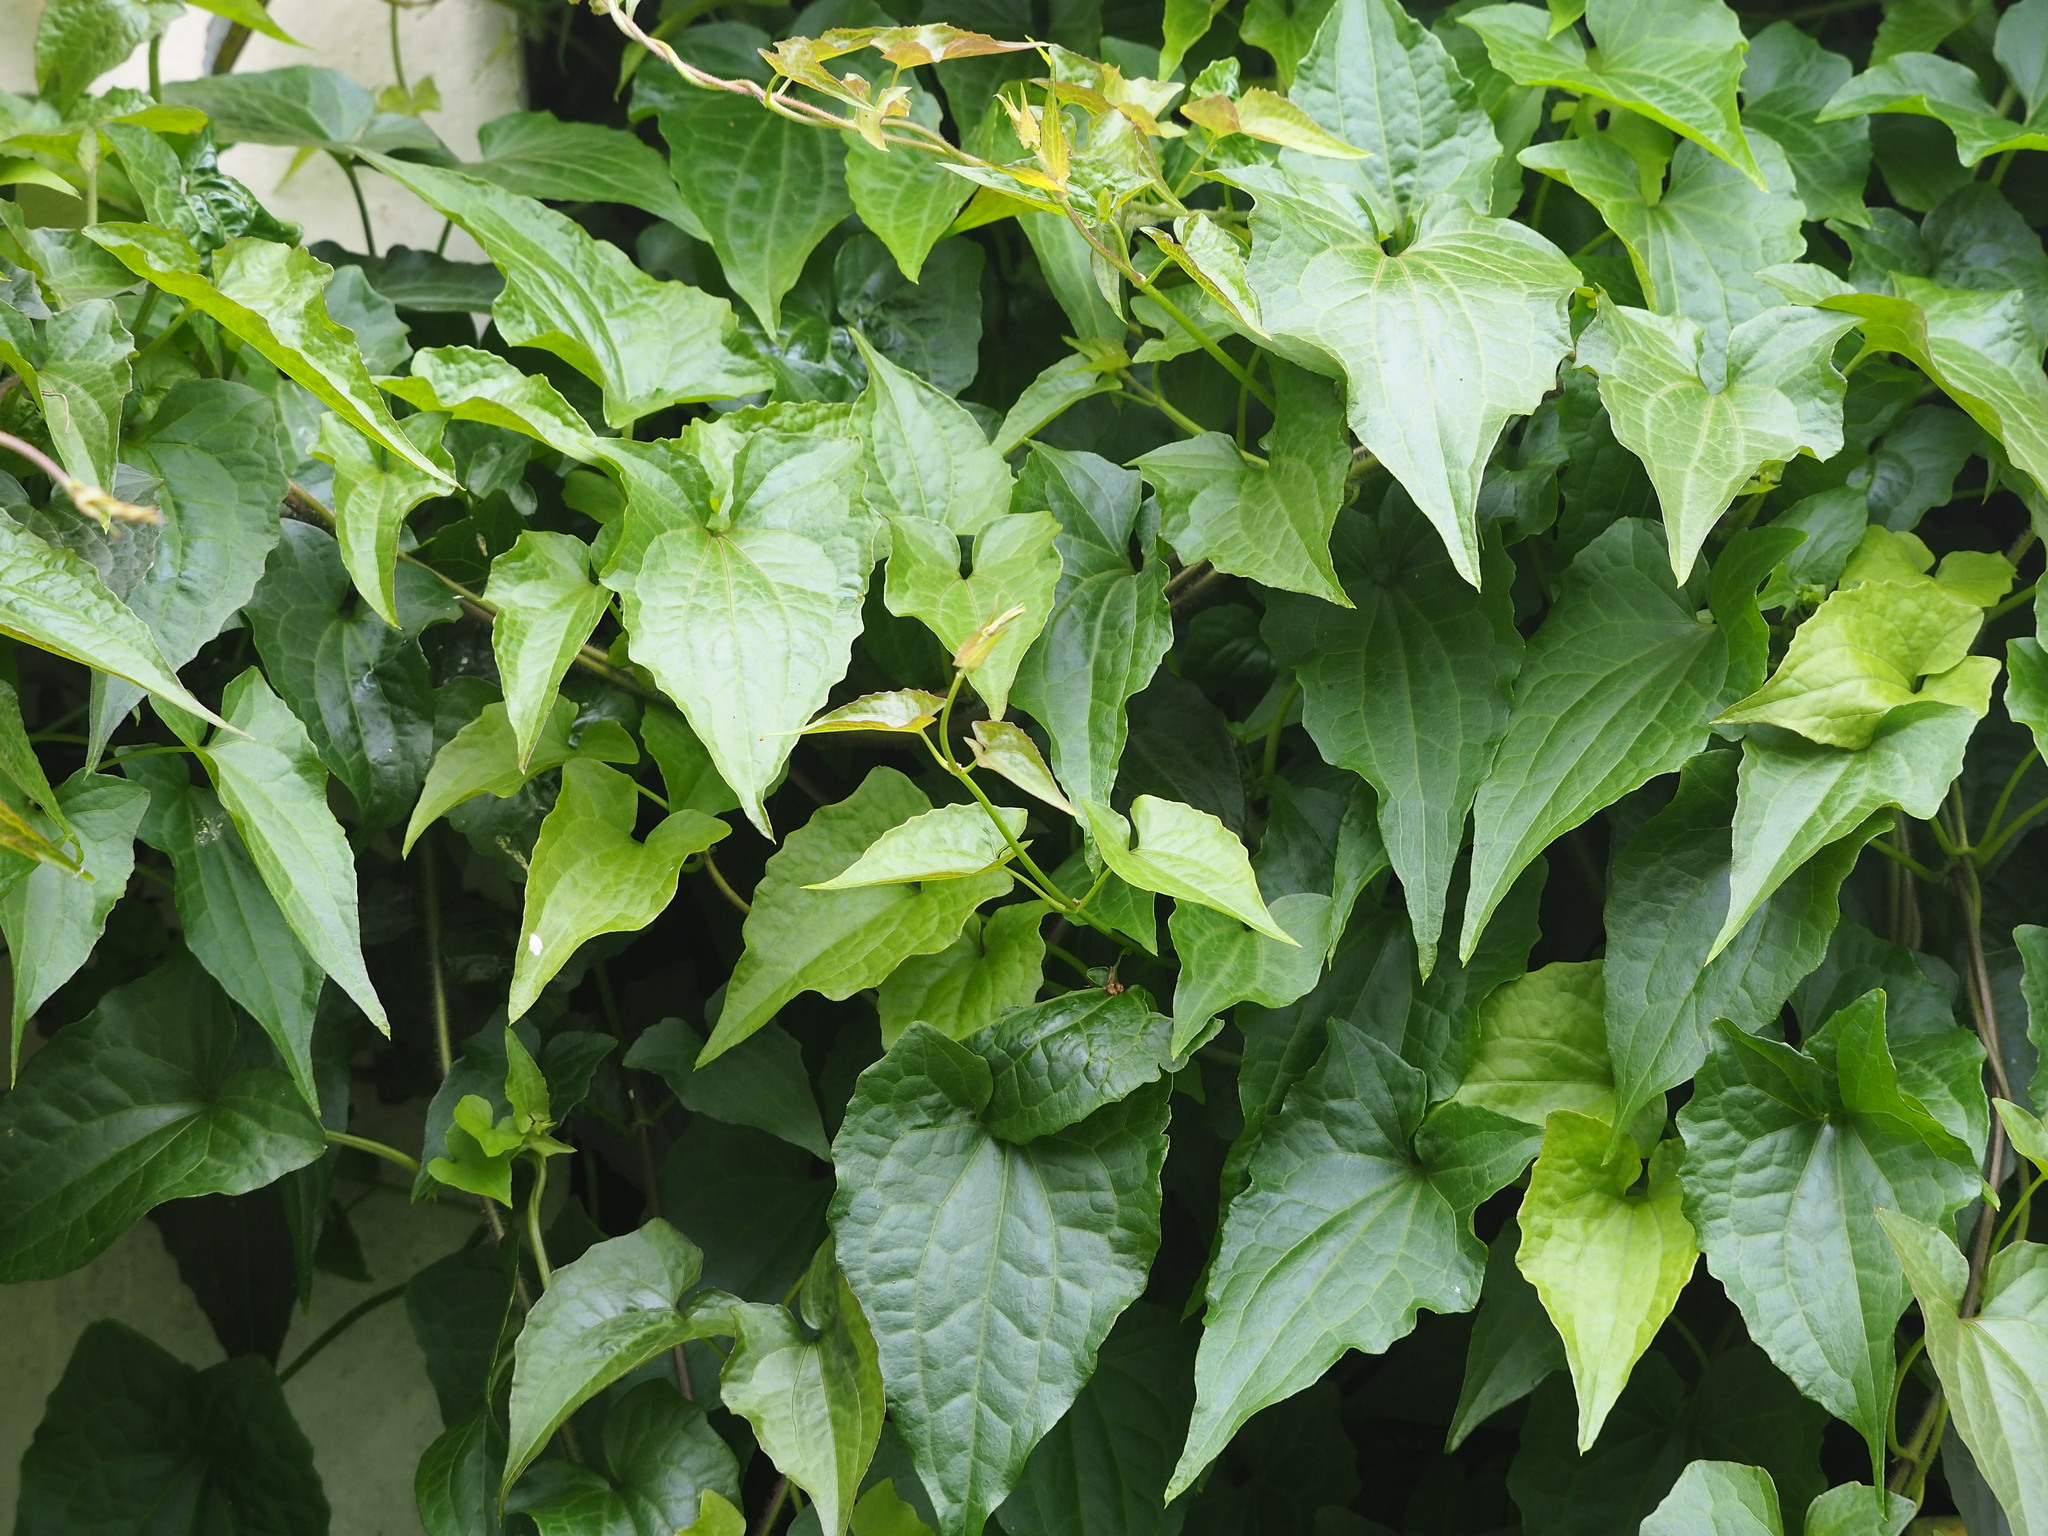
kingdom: Plantae
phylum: Tracheophyta
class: Magnoliopsida
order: Asterales
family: Asteraceae
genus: Mikania
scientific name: Mikania micrantha
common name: Mile-a-minute
